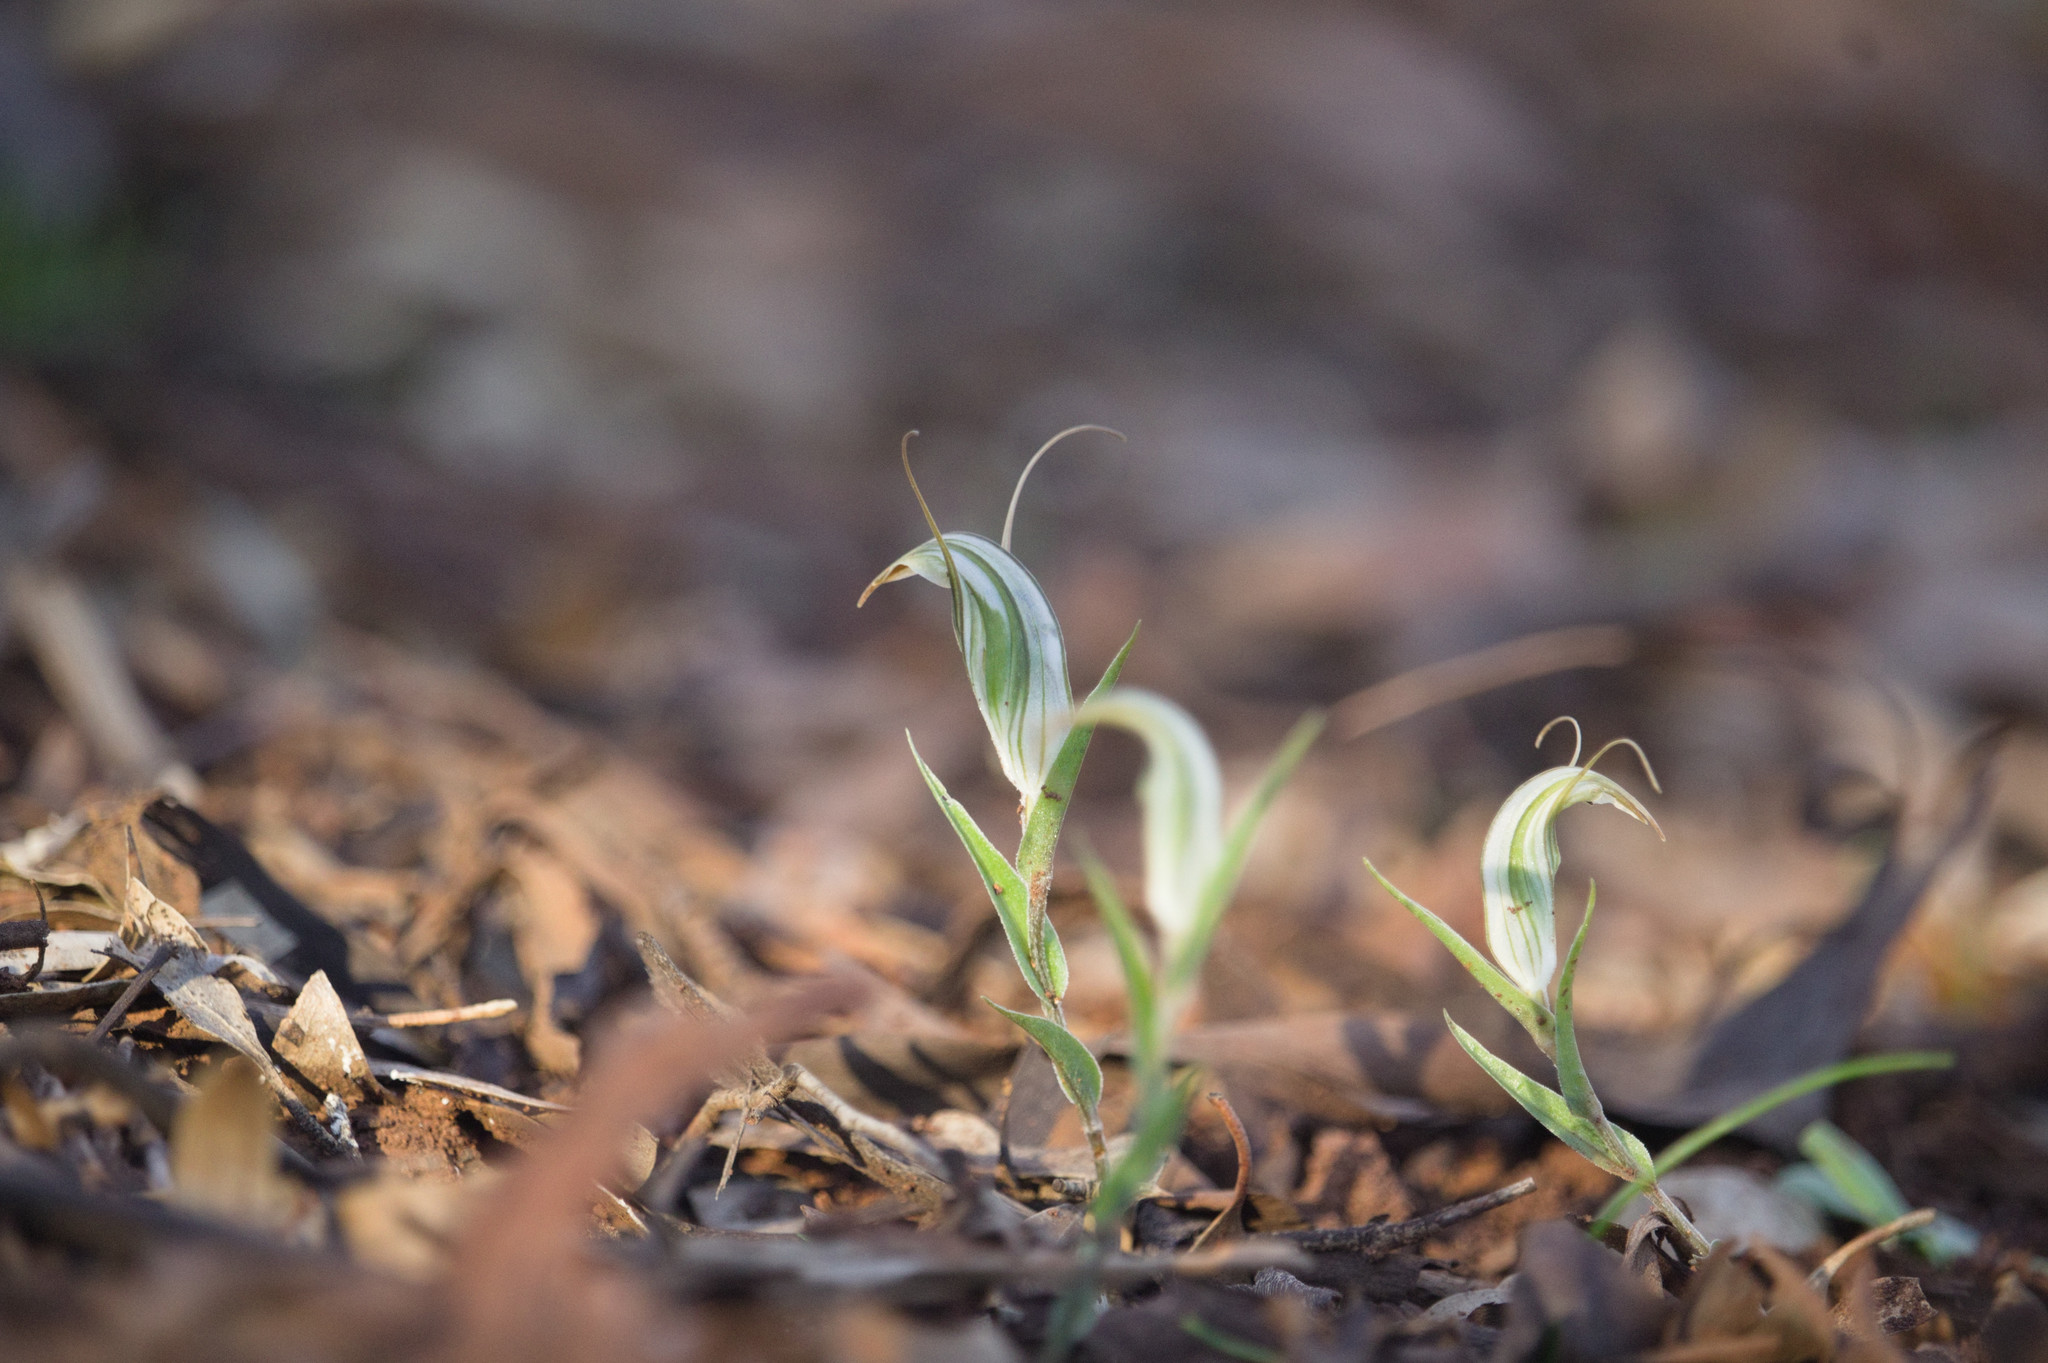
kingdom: Plantae
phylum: Tracheophyta
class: Liliopsida
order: Asparagales
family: Orchidaceae
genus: Pterostylis
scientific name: Pterostylis scabra
